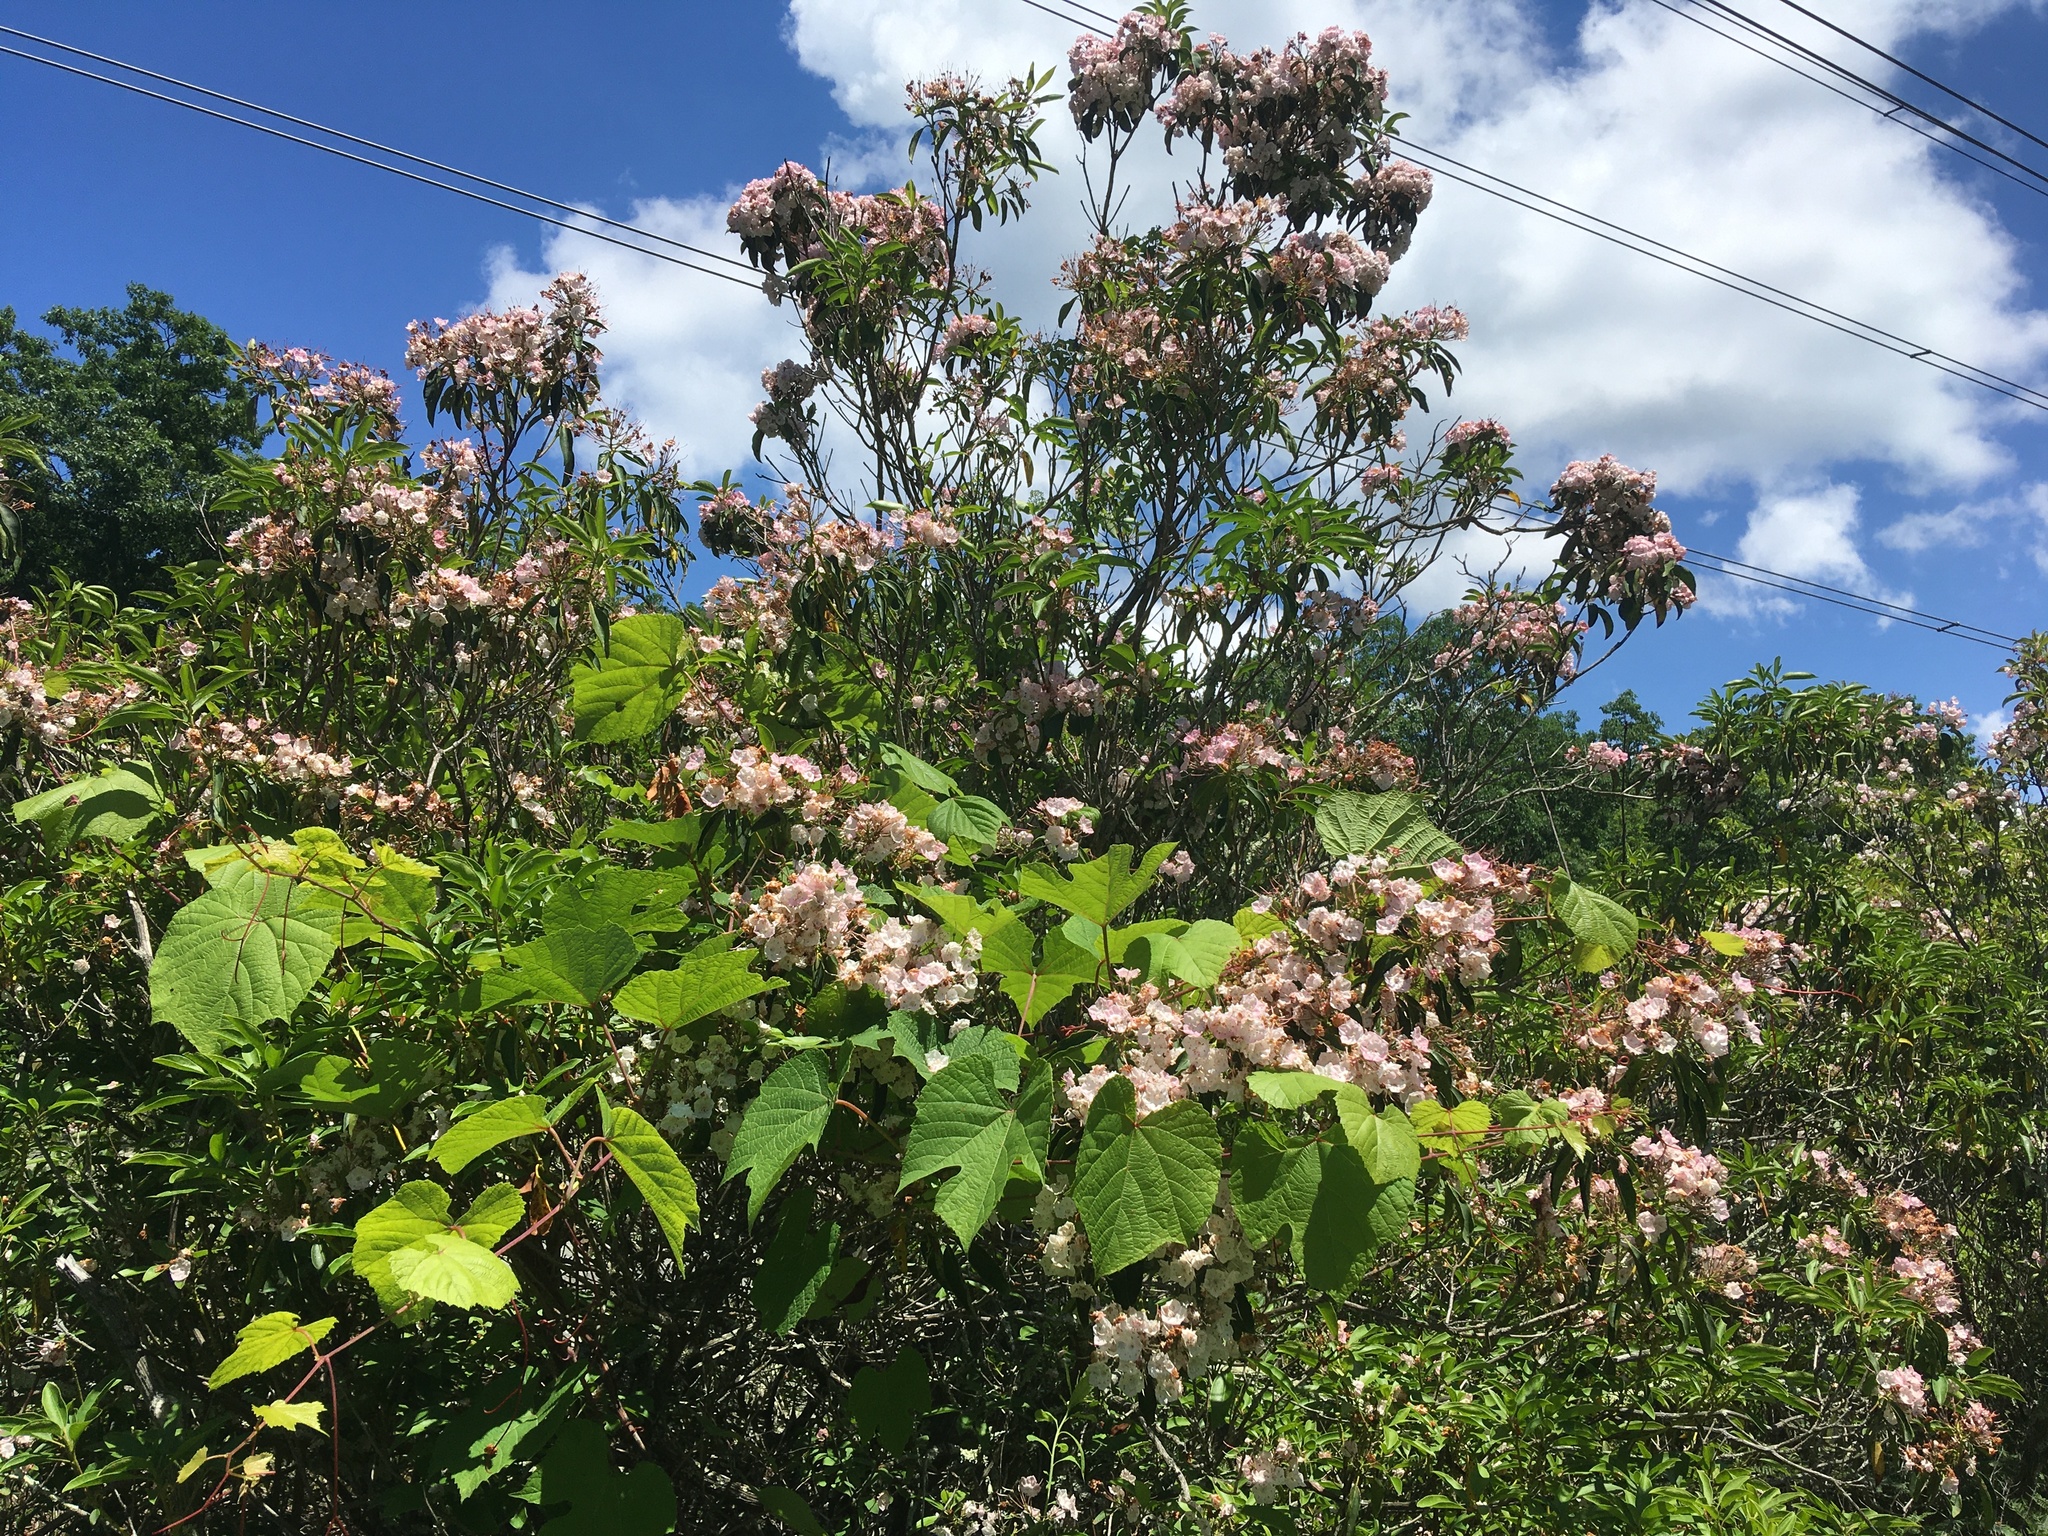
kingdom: Plantae
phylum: Tracheophyta
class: Magnoliopsida
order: Ericales
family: Ericaceae
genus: Kalmia
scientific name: Kalmia latifolia
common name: Mountain-laurel
